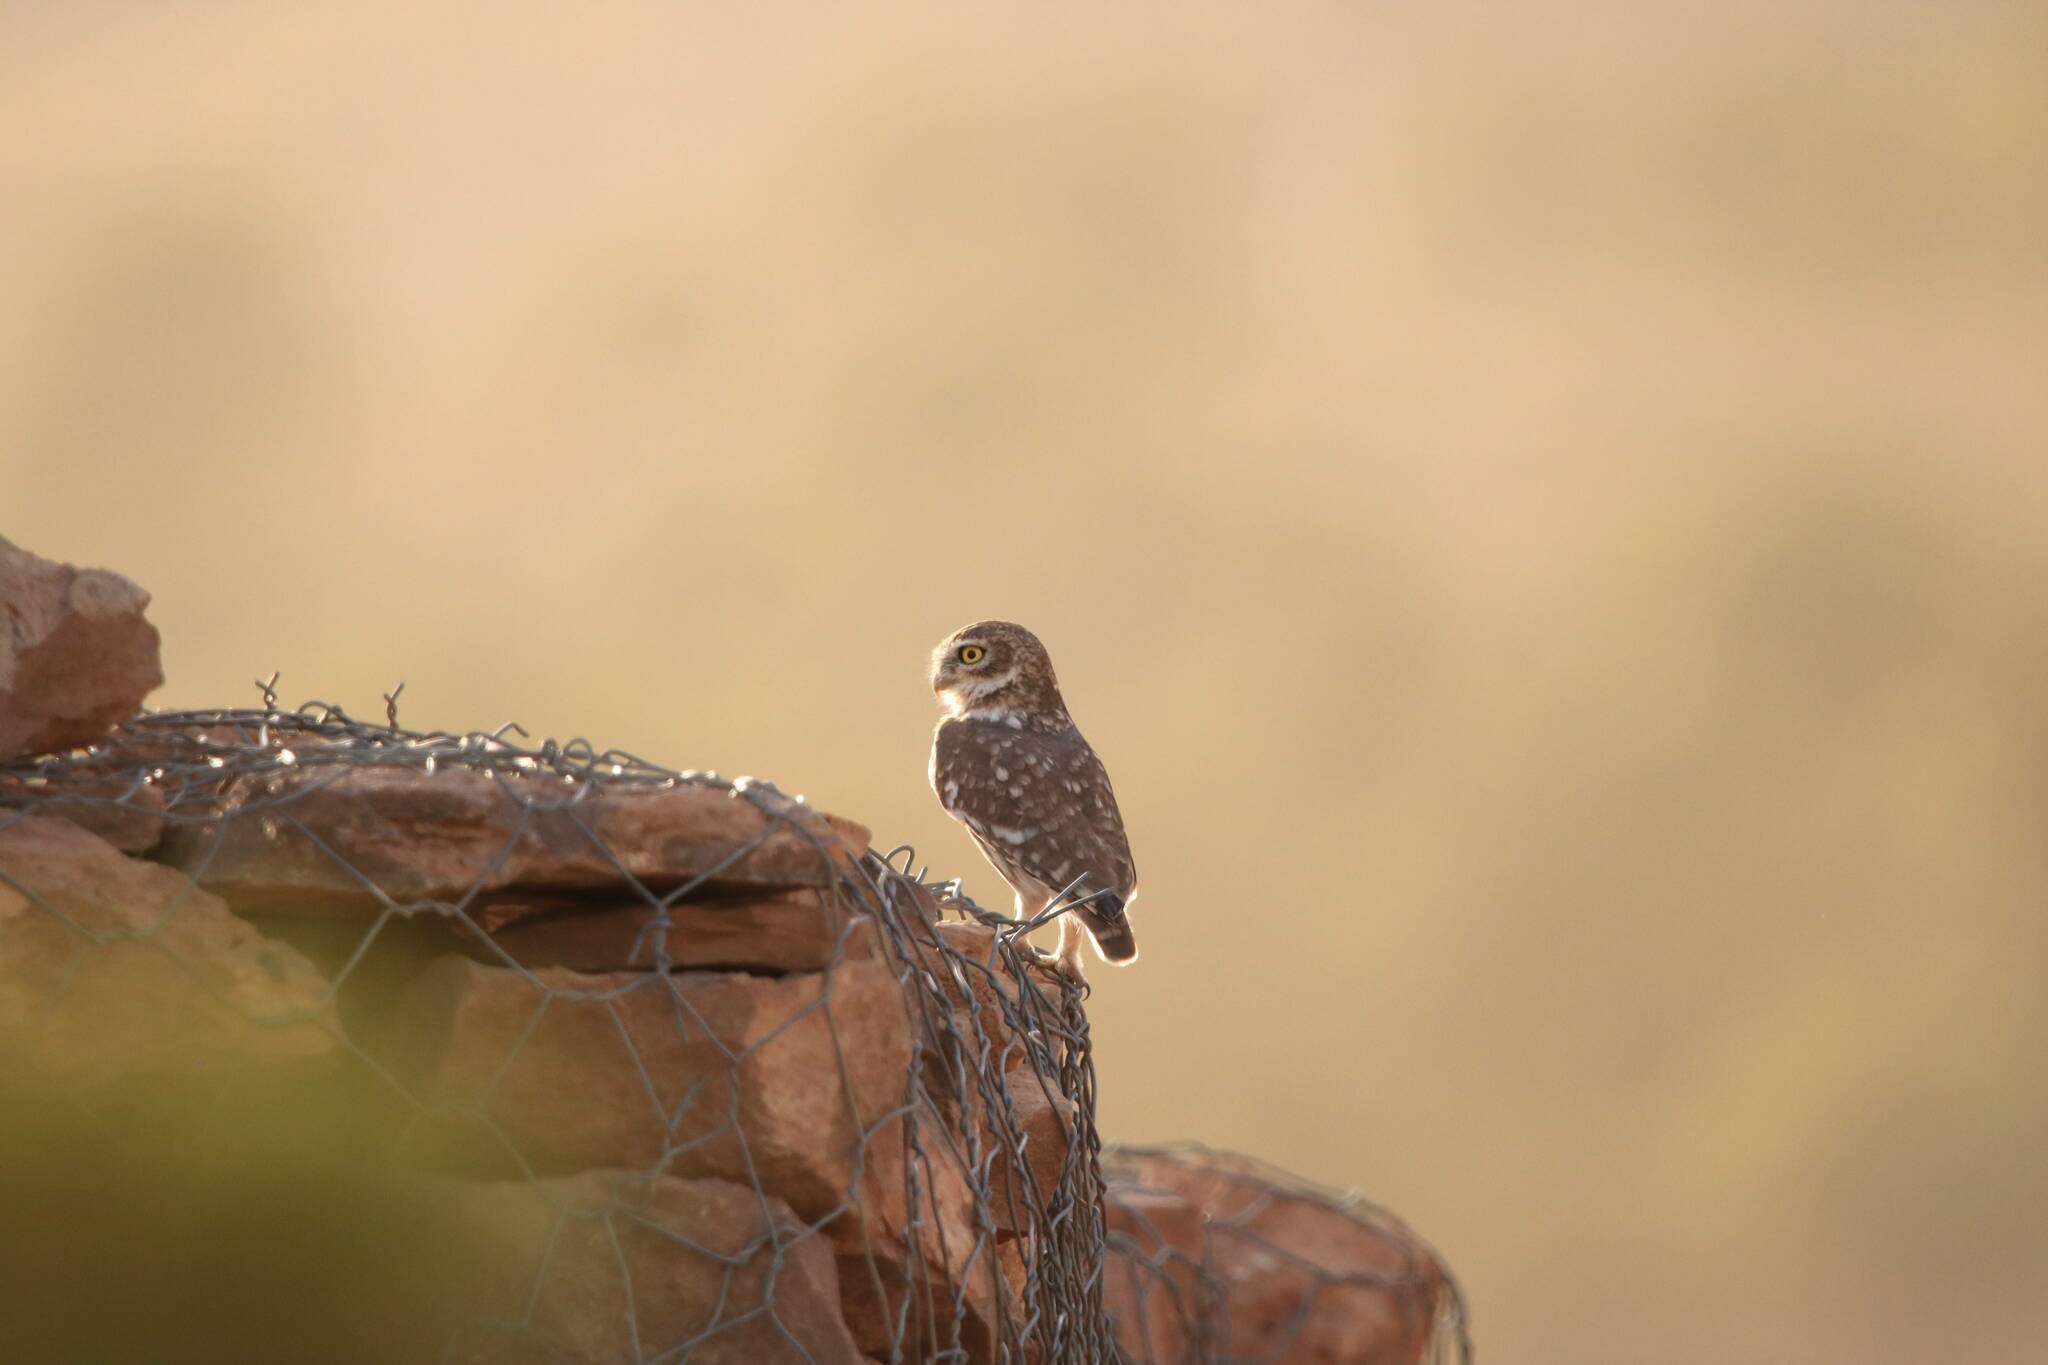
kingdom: Animalia
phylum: Chordata
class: Aves
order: Strigiformes
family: Strigidae
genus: Athene
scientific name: Athene noctua
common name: Little owl
